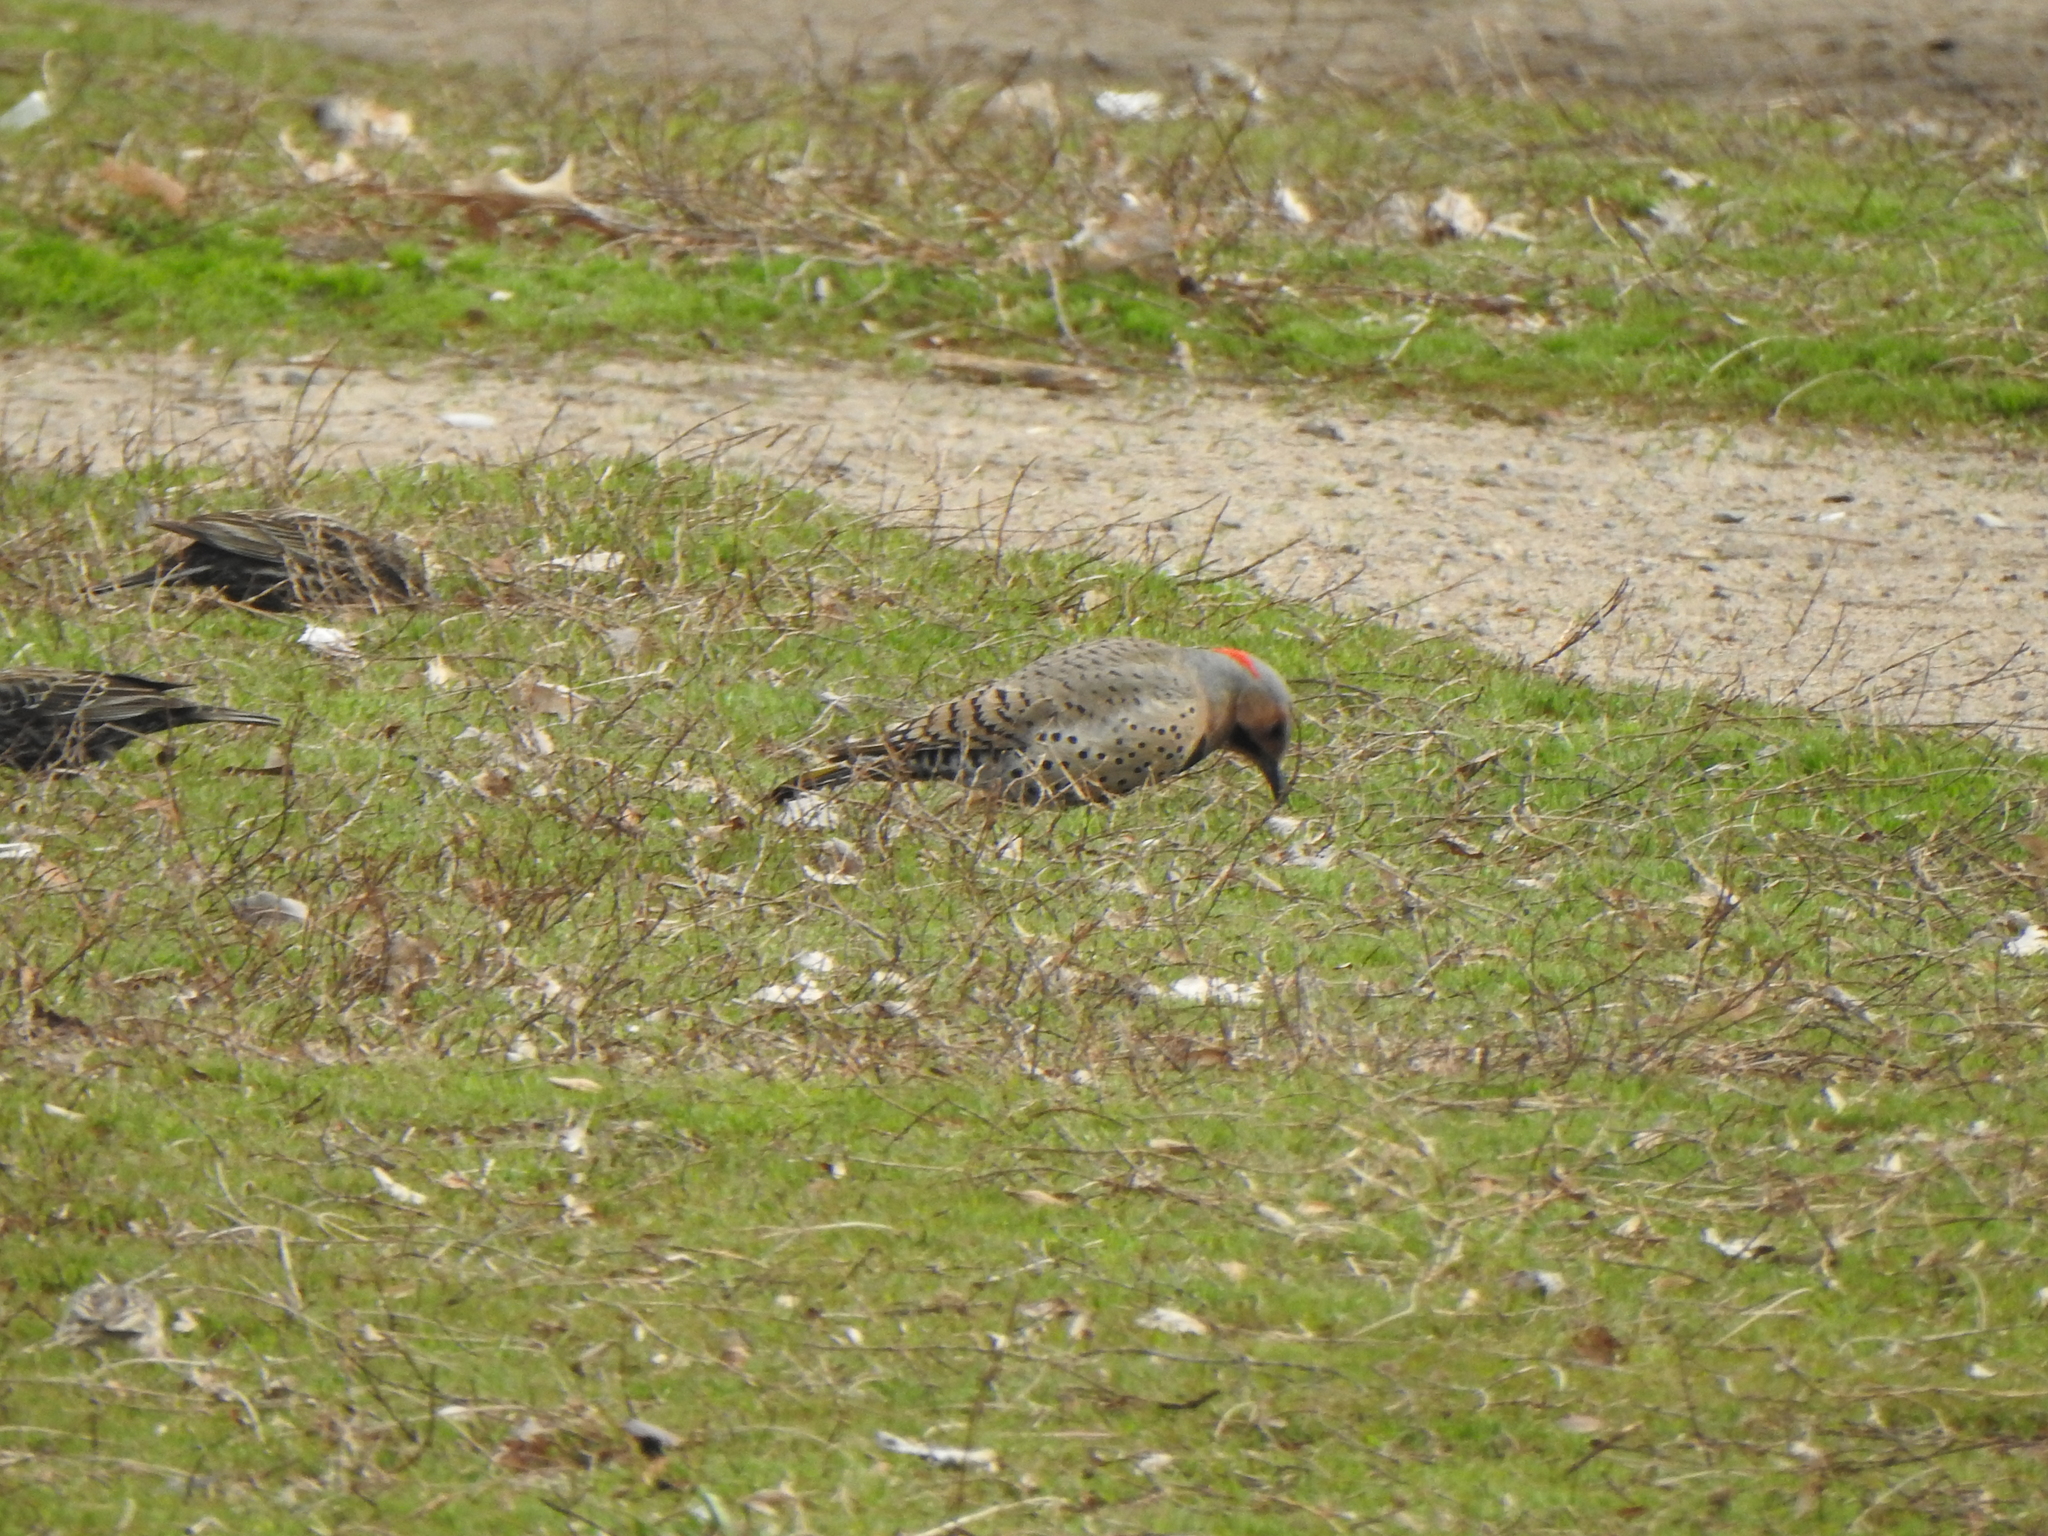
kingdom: Animalia
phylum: Chordata
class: Aves
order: Piciformes
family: Picidae
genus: Colaptes
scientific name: Colaptes auratus
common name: Northern flicker
